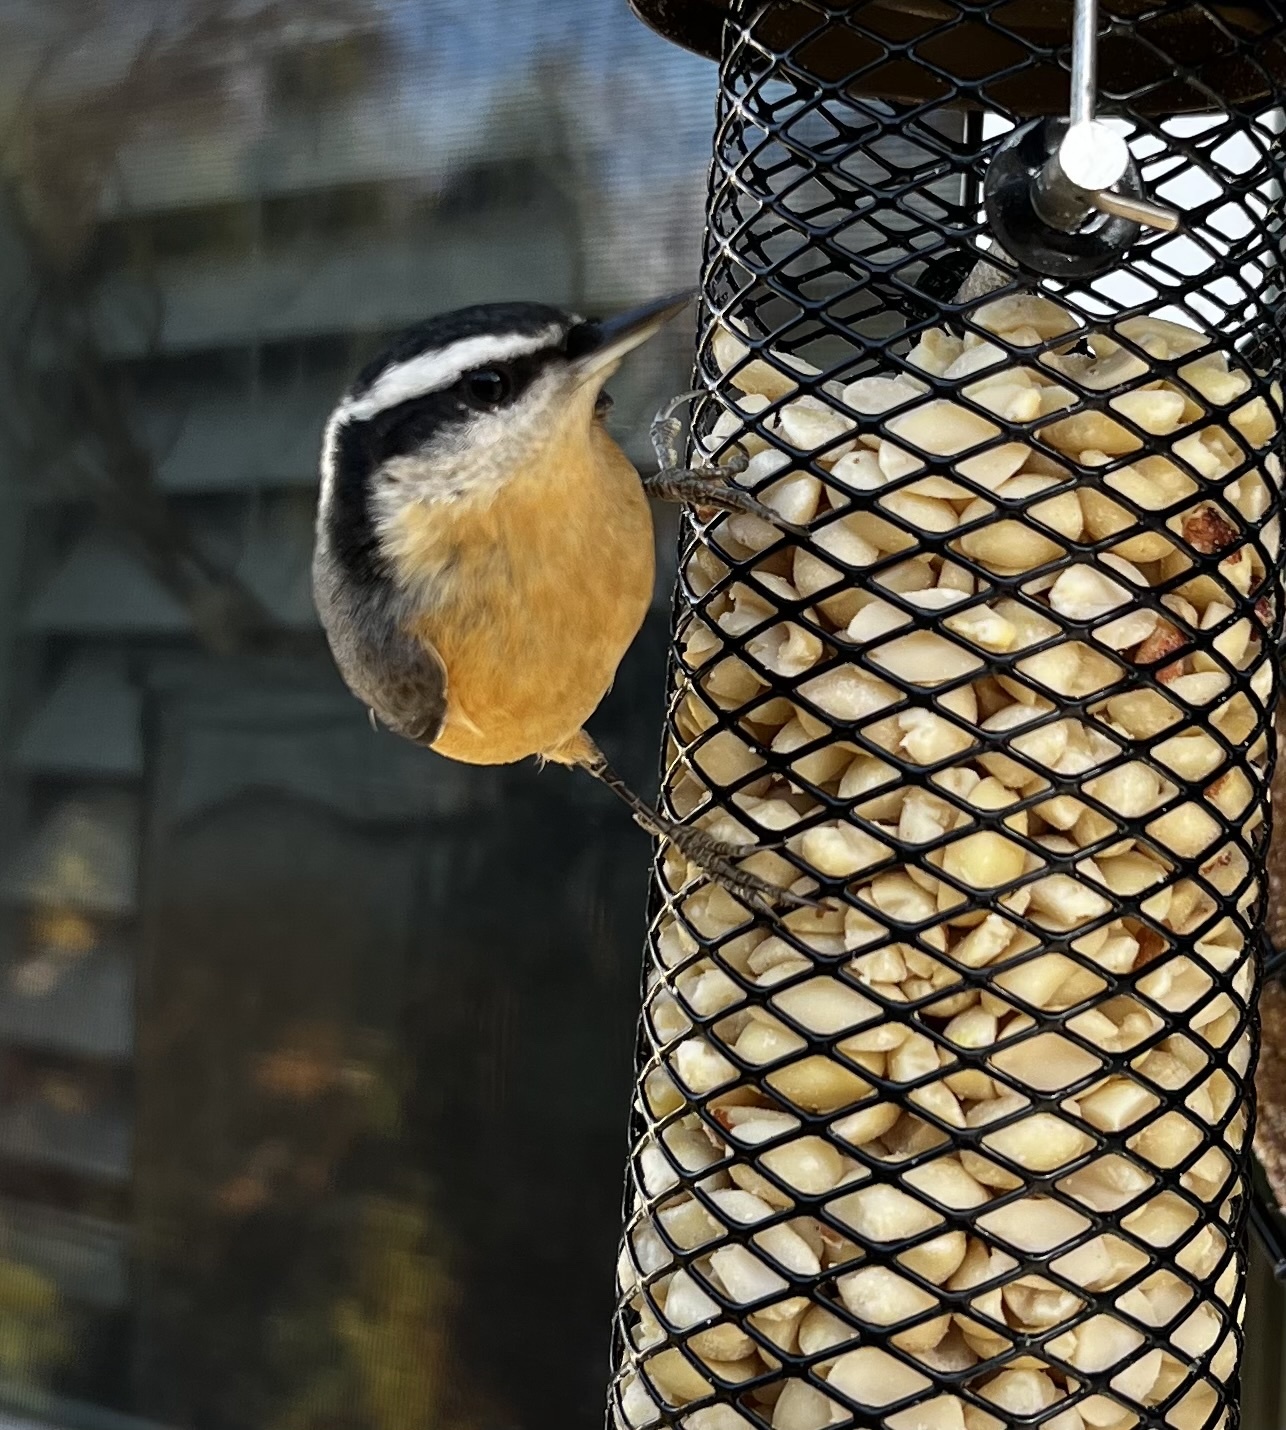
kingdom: Animalia
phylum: Chordata
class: Aves
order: Passeriformes
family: Sittidae
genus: Sitta
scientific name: Sitta canadensis
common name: Red-breasted nuthatch
